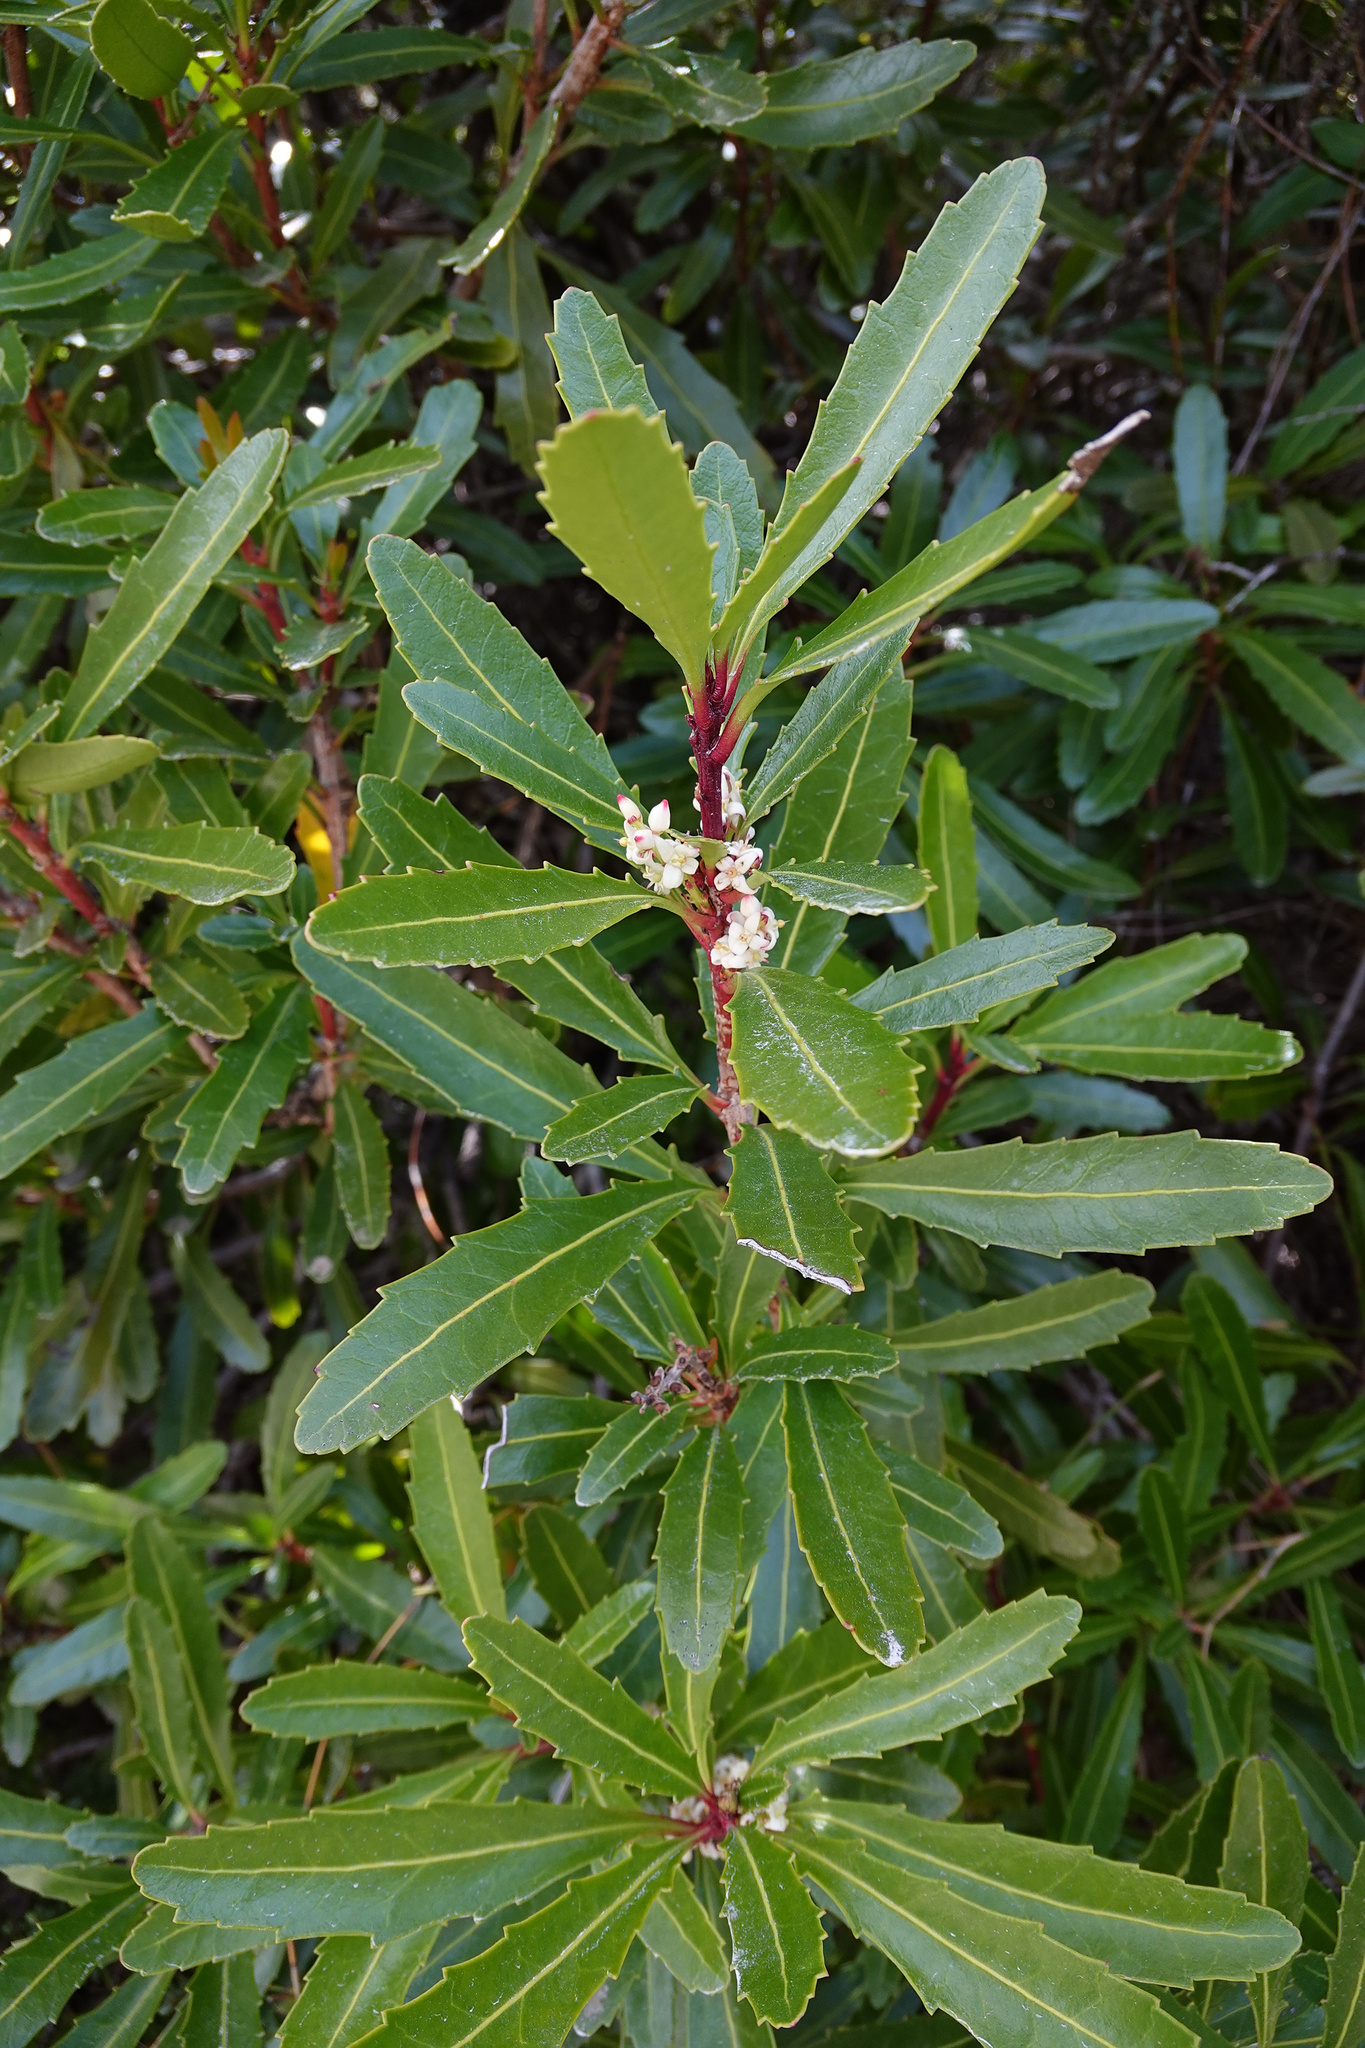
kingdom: Plantae
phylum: Tracheophyta
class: Magnoliopsida
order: Proteales
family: Proteaceae
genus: Cenarrhenes
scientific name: Cenarrhenes nitida
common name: Native plum
